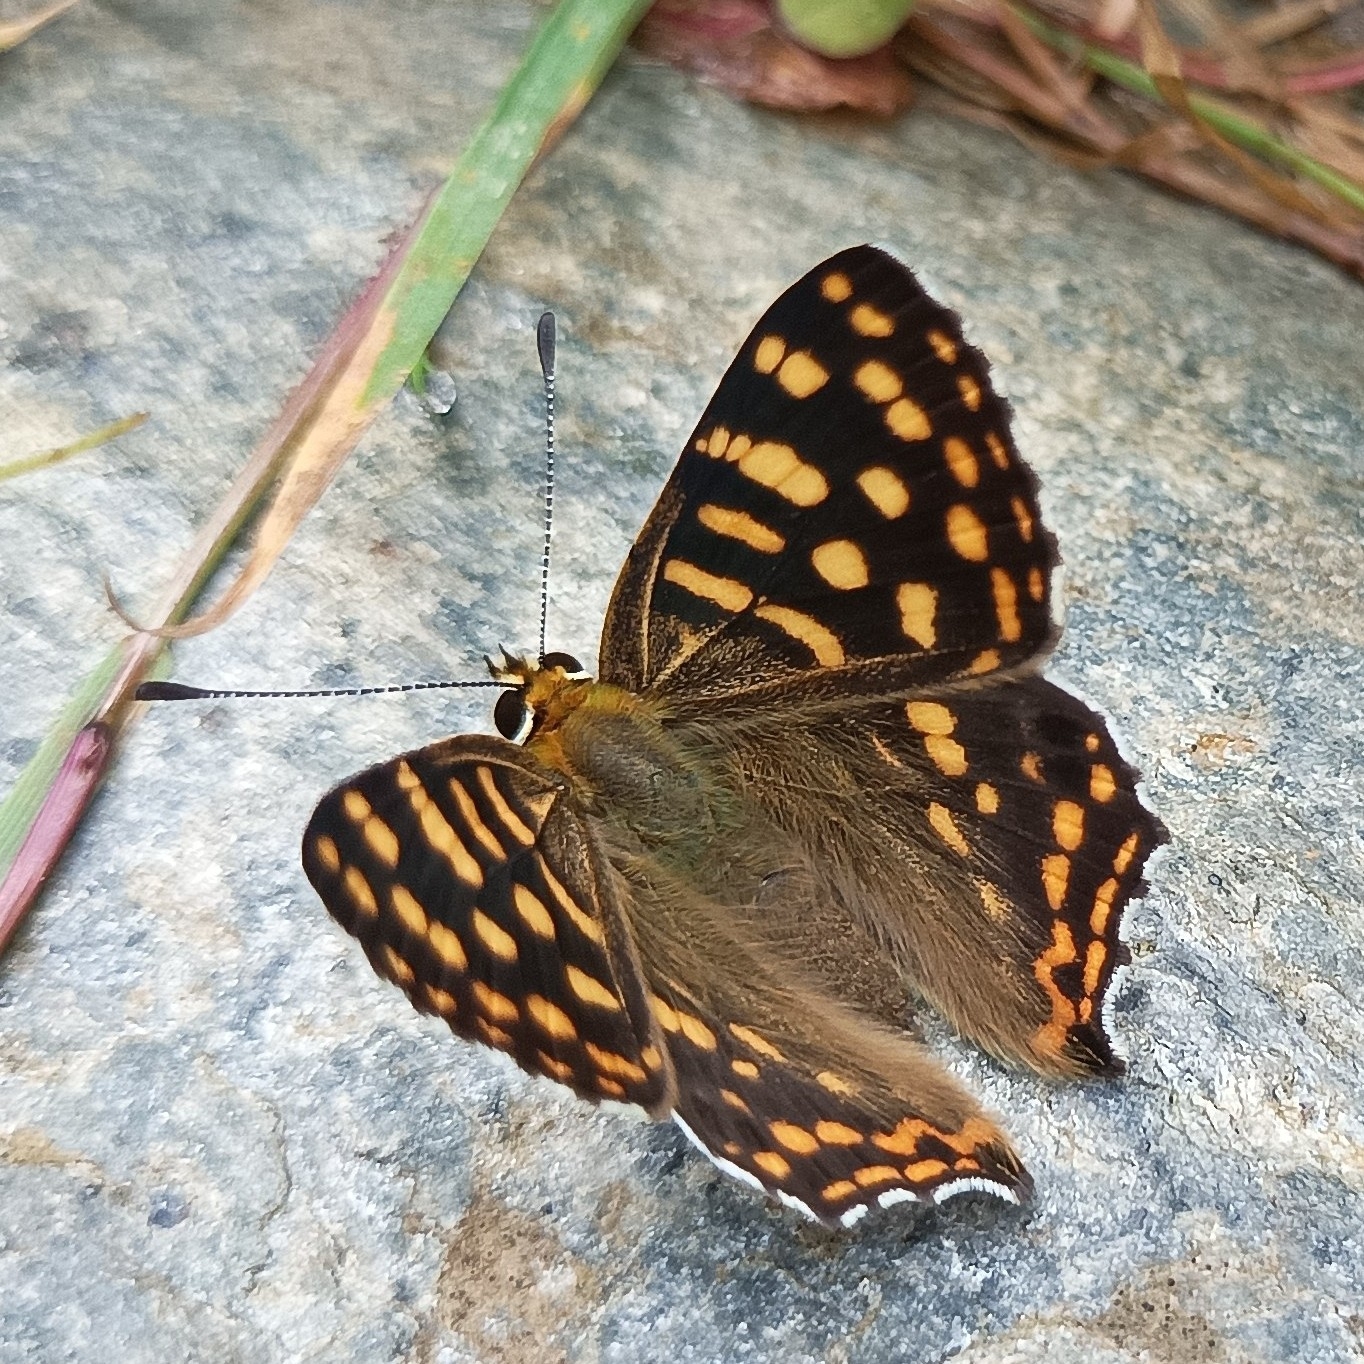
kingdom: Animalia
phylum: Arthropoda
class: Insecta
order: Lepidoptera
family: Lycaenidae
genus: Dodona
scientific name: Dodona durga
